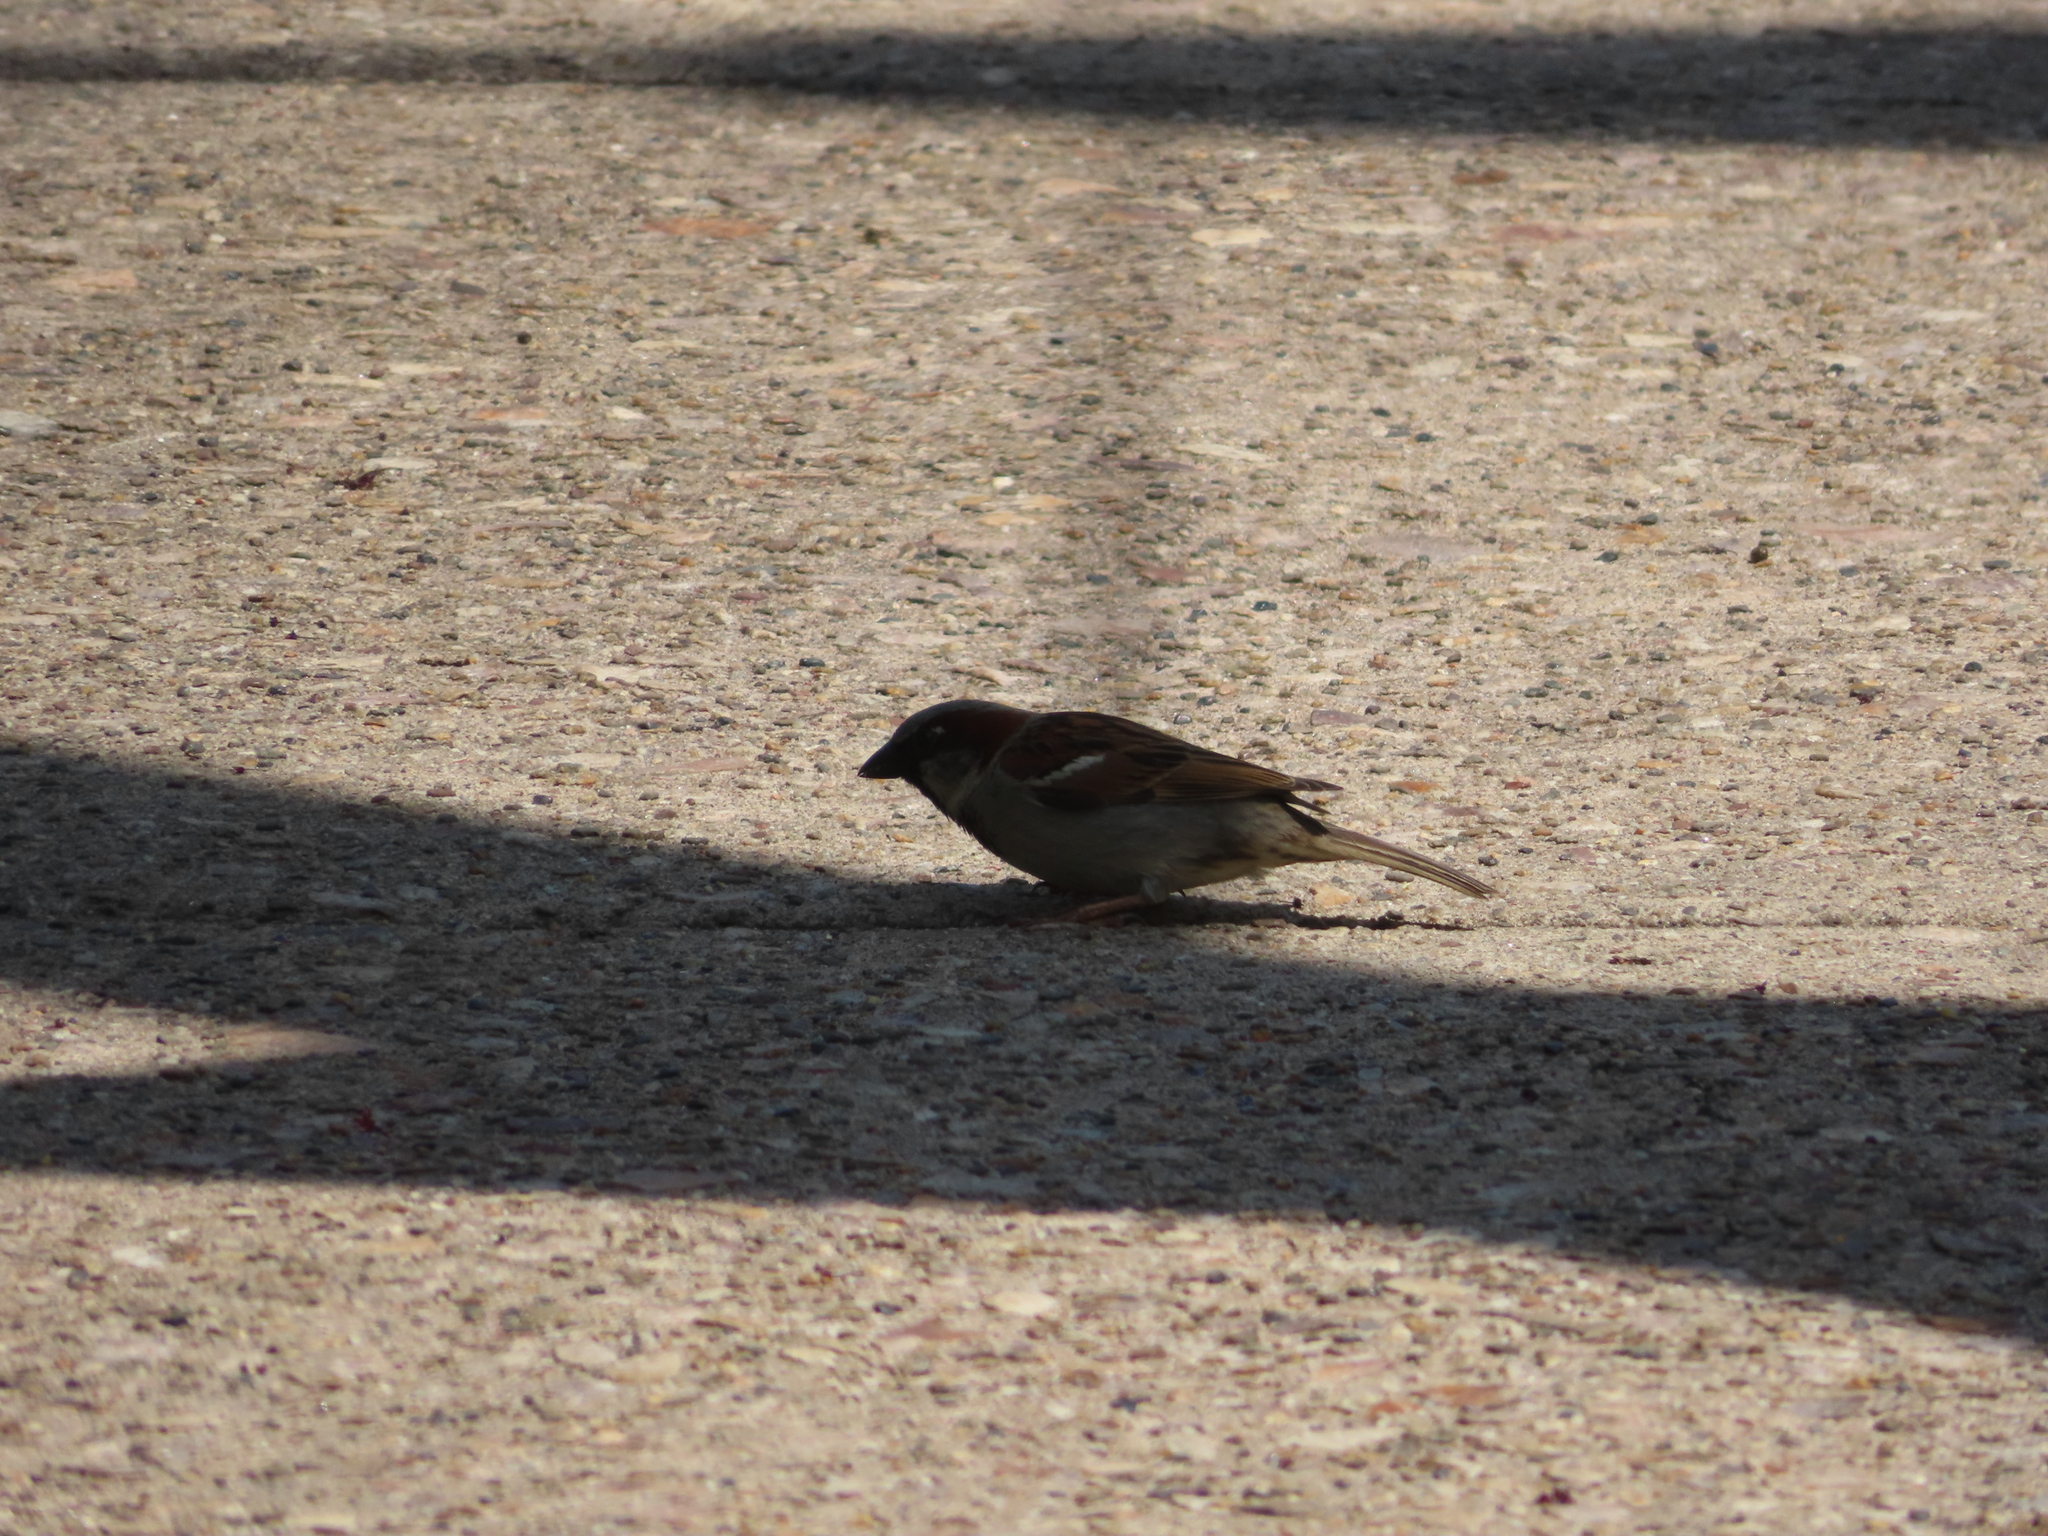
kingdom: Animalia
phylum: Chordata
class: Aves
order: Passeriformes
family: Passeridae
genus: Passer
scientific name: Passer domesticus
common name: House sparrow
